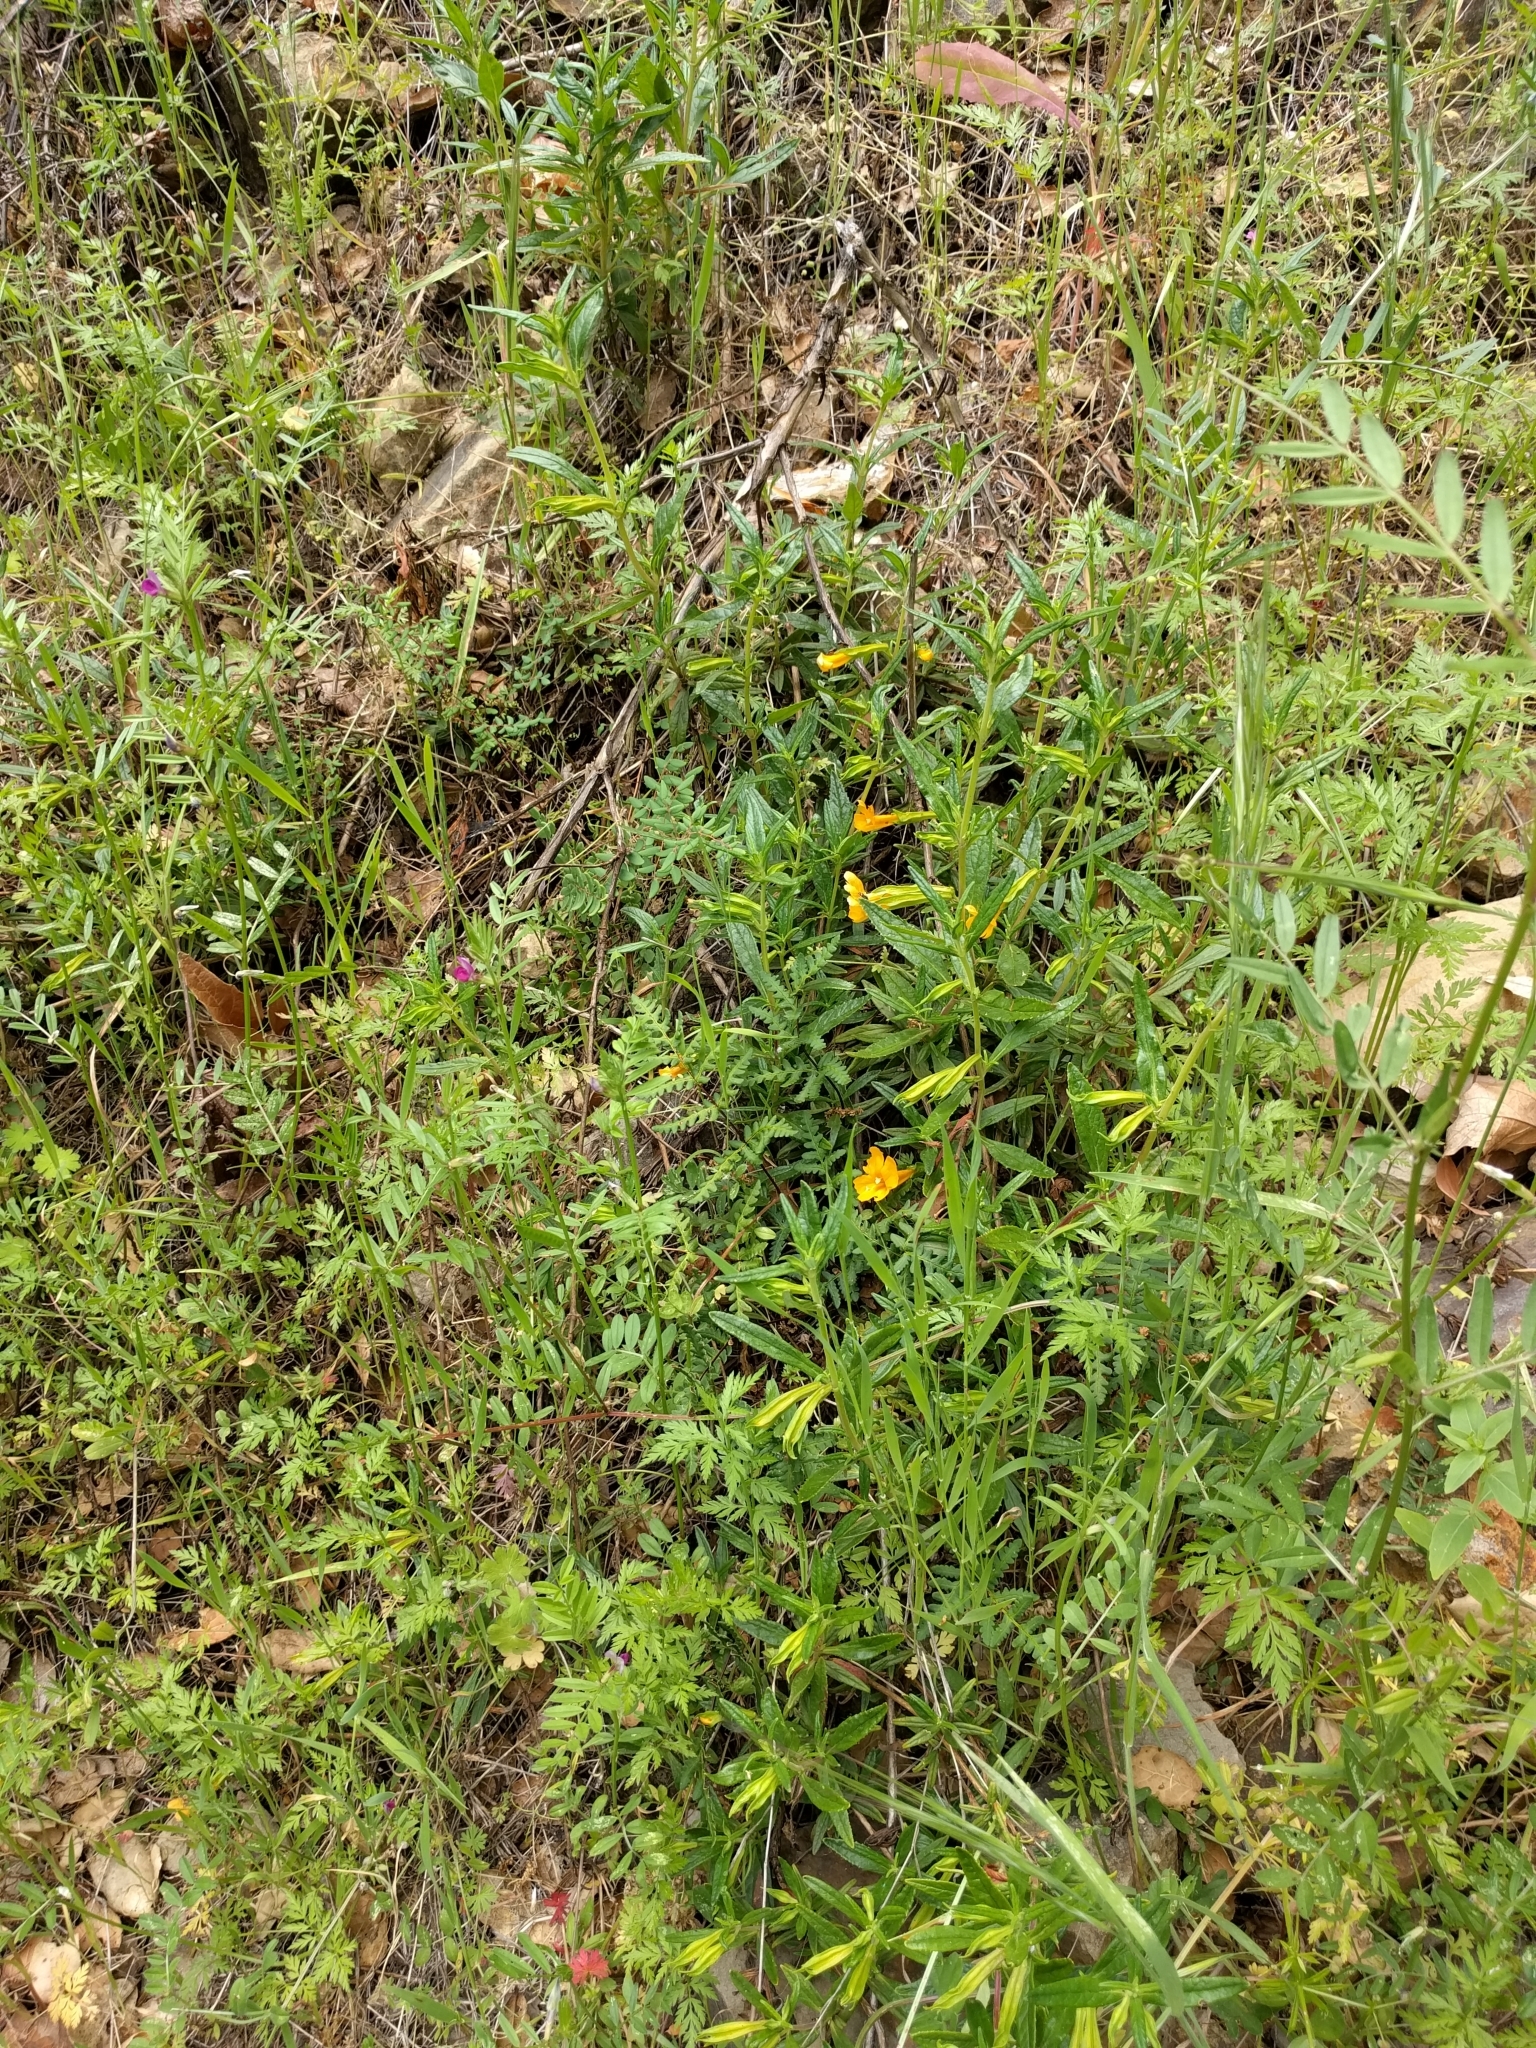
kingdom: Plantae
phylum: Tracheophyta
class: Magnoliopsida
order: Lamiales
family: Phrymaceae
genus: Diplacus
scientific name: Diplacus aurantiacus
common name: Bush monkey-flower
